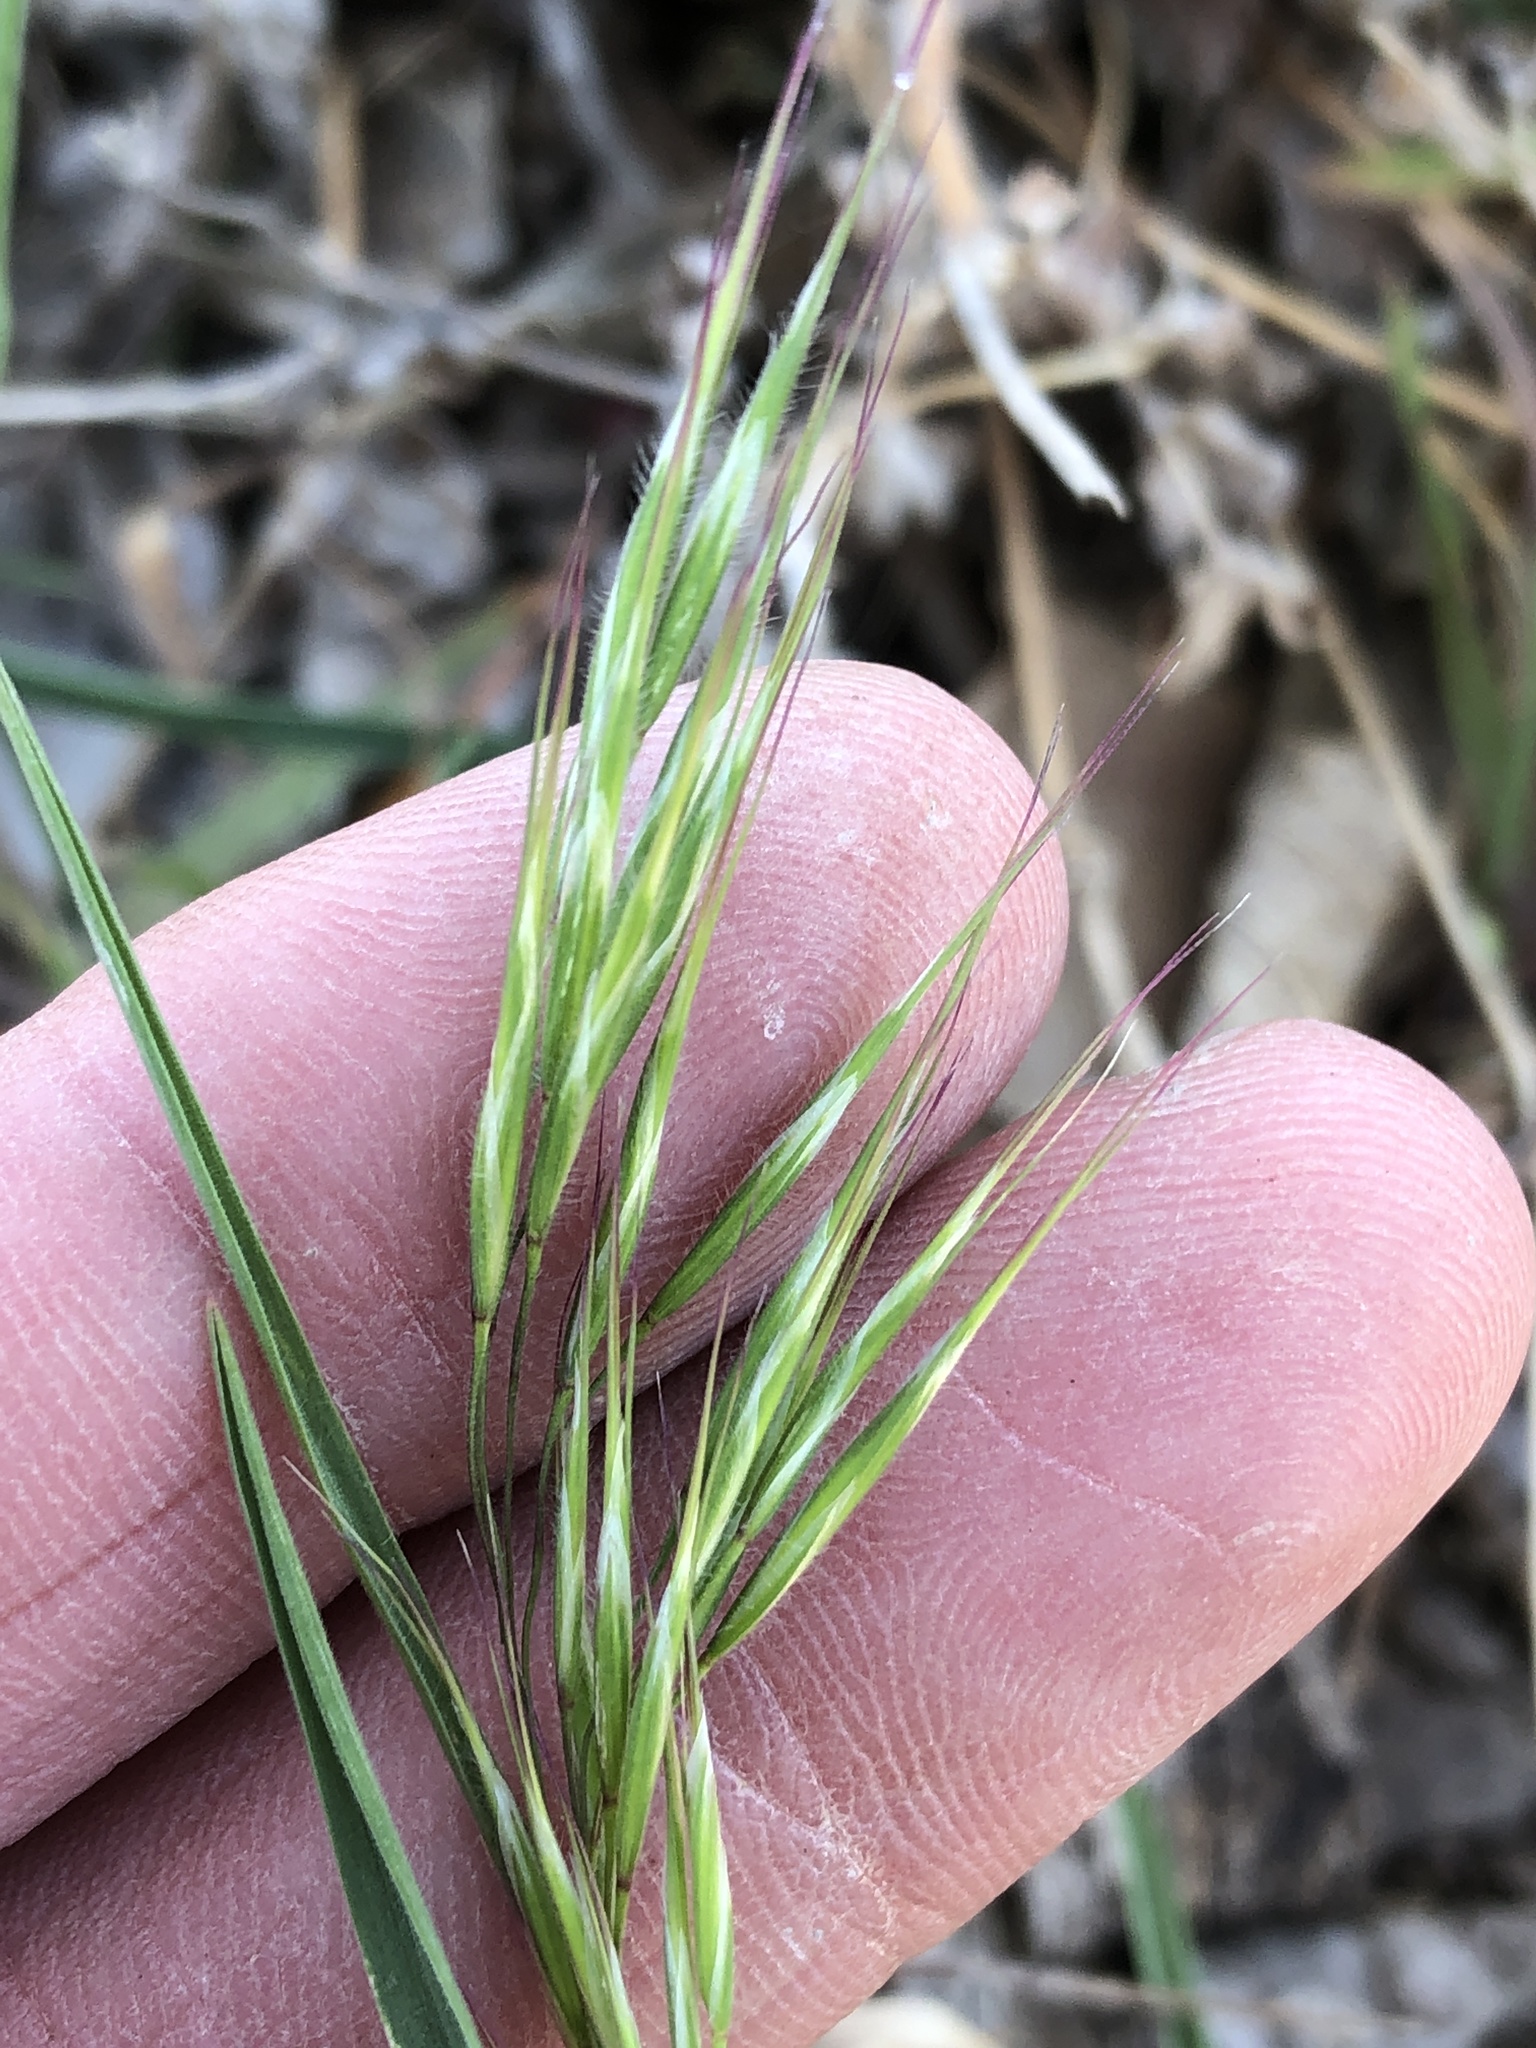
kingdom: Plantae
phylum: Tracheophyta
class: Liliopsida
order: Poales
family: Poaceae
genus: Bromus
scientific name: Bromus tectorum
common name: Cheatgrass
